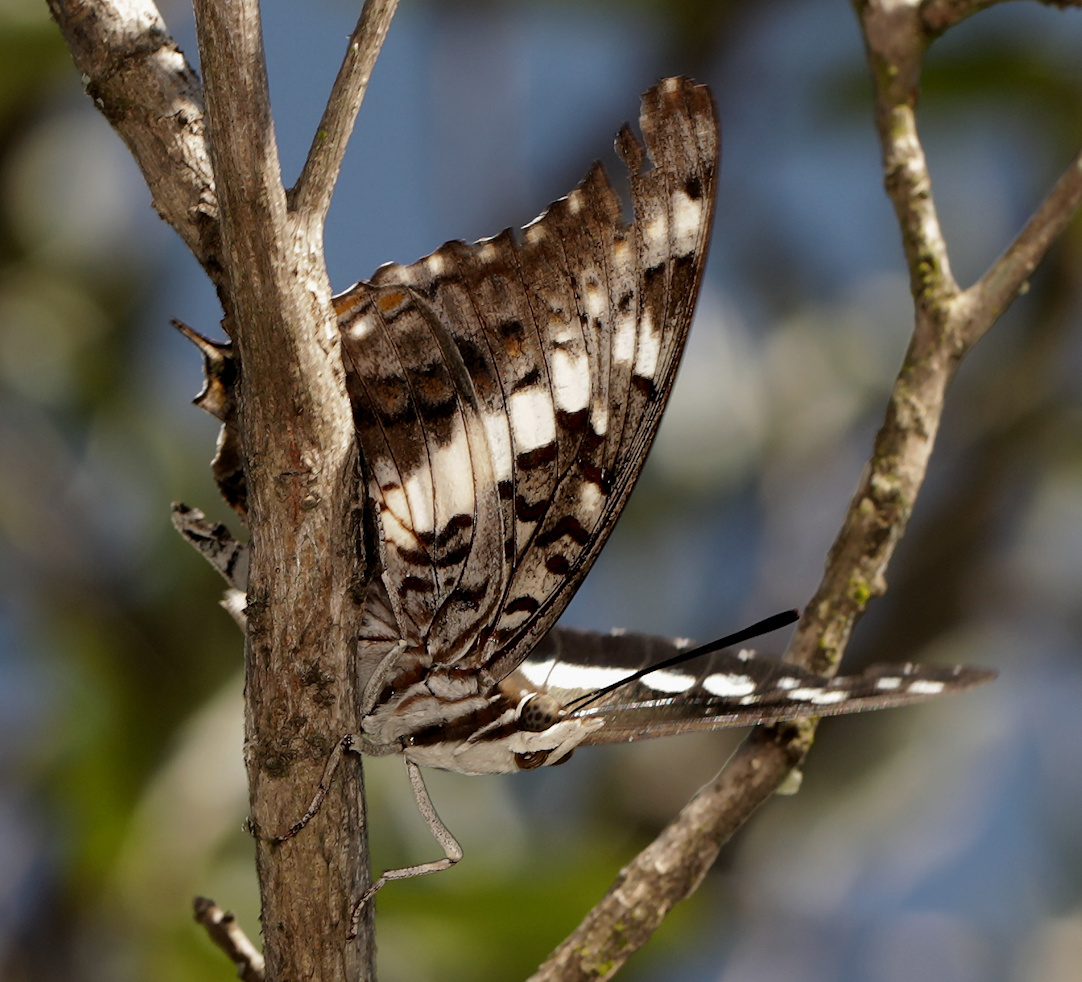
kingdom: Animalia
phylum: Arthropoda
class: Insecta
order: Lepidoptera
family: Nymphalidae
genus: Charaxes
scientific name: Charaxes achaemenes
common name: Bushveld charaxes
